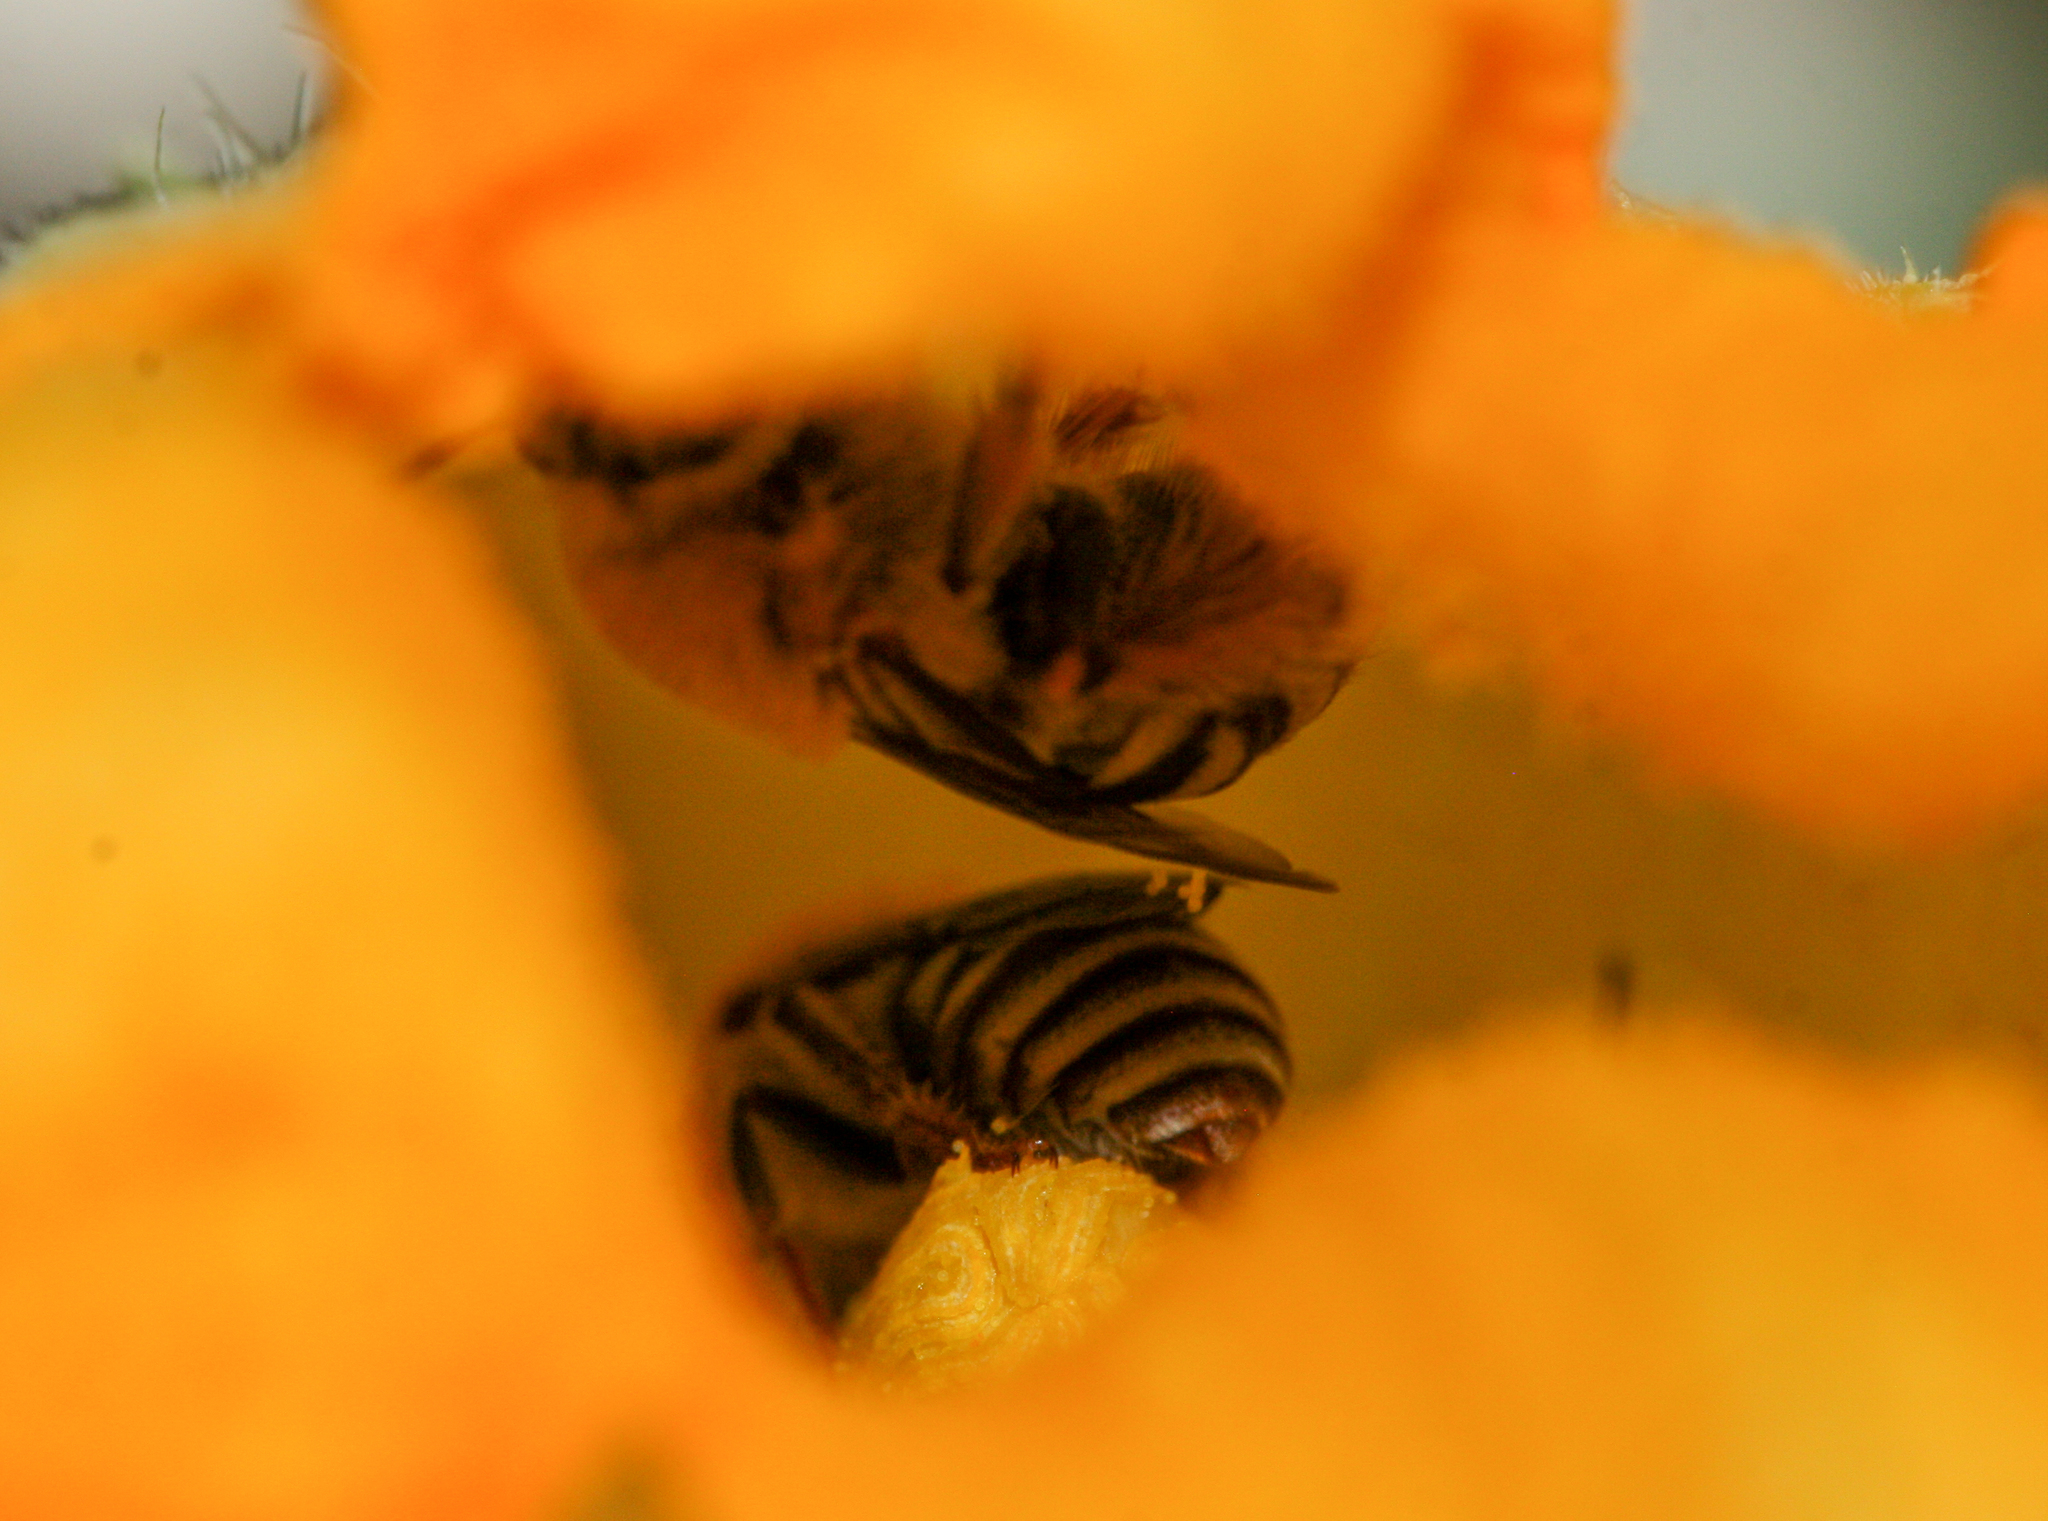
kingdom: Animalia
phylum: Arthropoda
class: Insecta
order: Hymenoptera
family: Apidae
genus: Peponapis
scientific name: Peponapis pruinosa
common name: Pruinose squash bee
